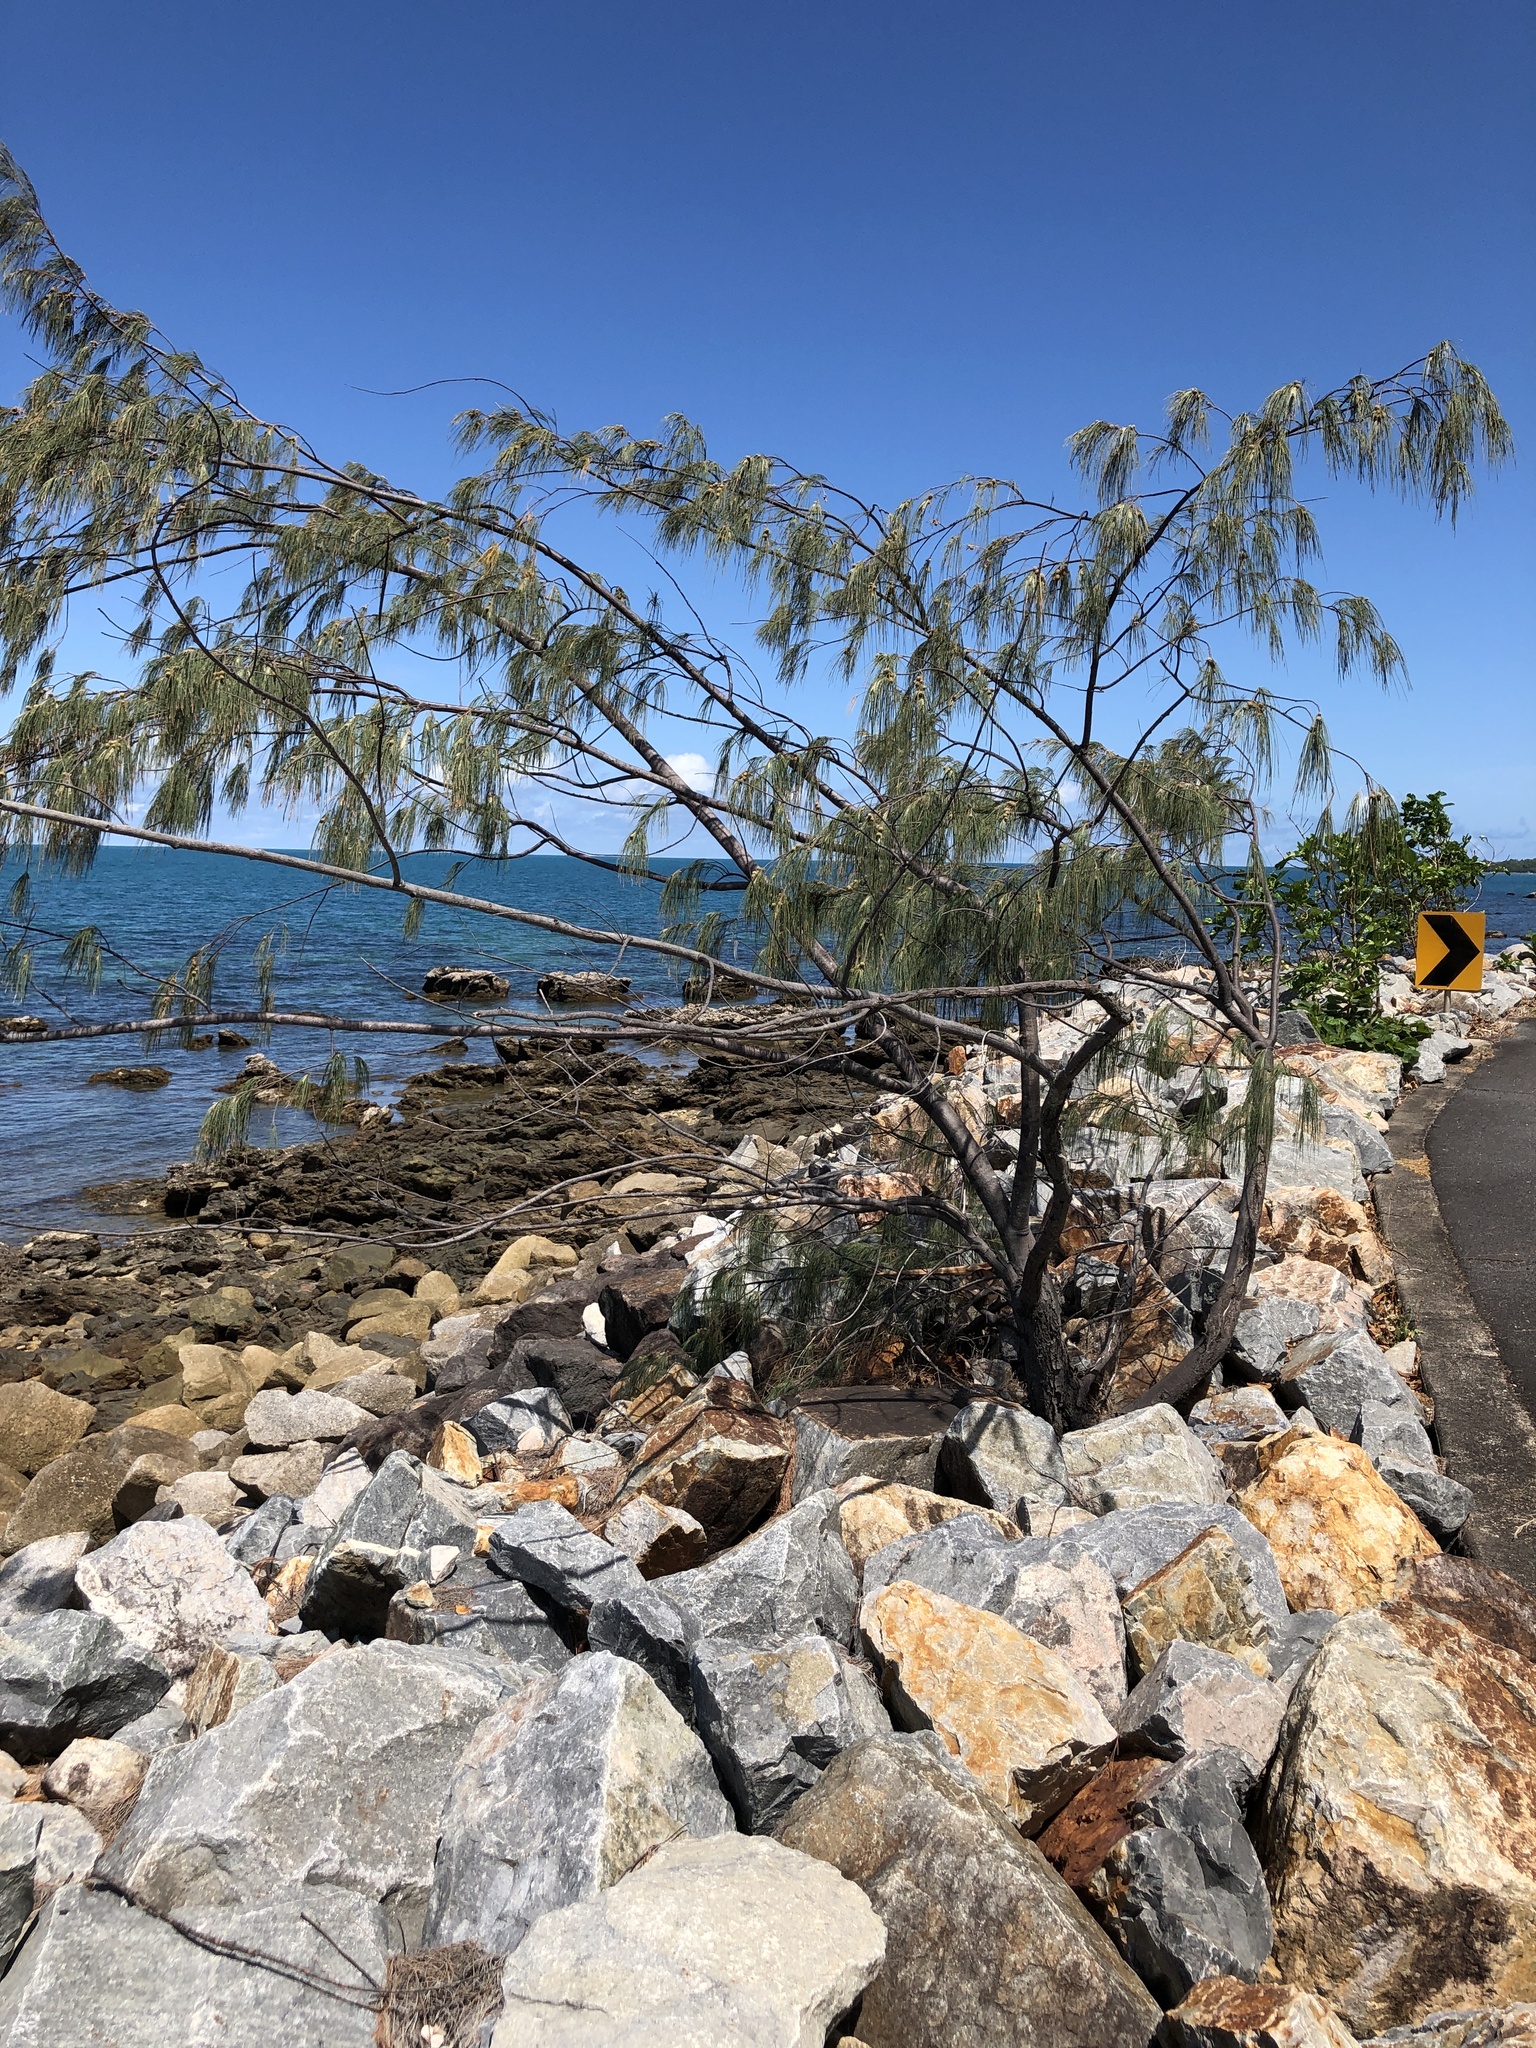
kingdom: Plantae
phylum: Tracheophyta
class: Magnoliopsida
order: Fagales
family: Casuarinaceae
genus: Casuarina
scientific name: Casuarina equisetifolia
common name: Beach sheoak
